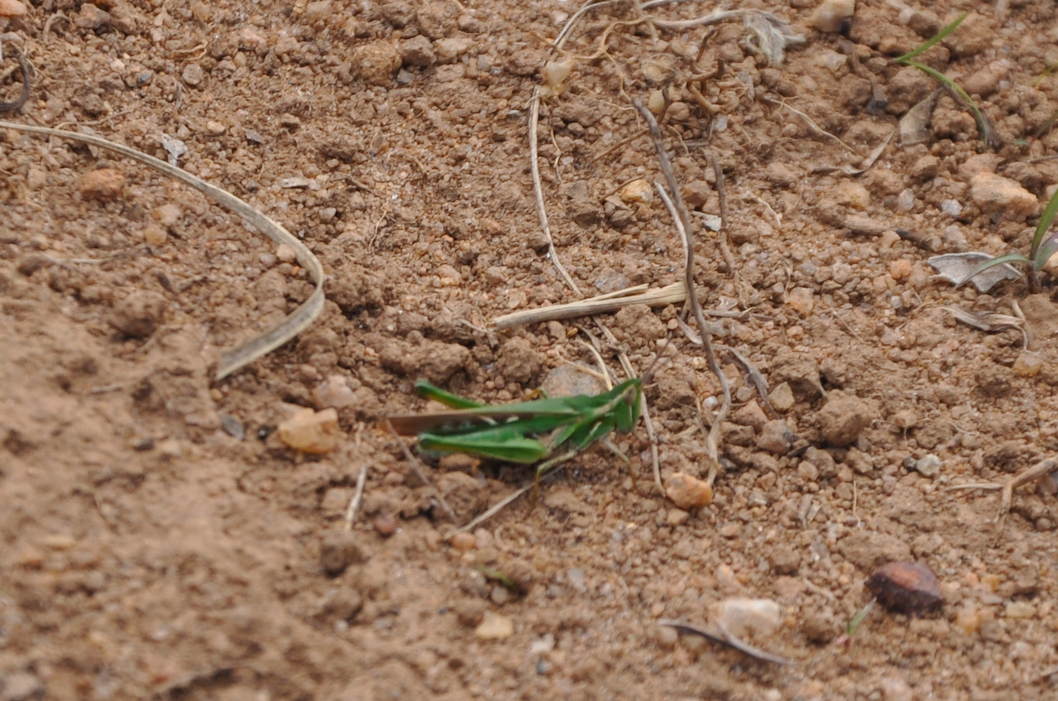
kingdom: Animalia
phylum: Arthropoda
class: Insecta
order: Orthoptera
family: Acrididae
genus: Calephorus
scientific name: Calephorus ornatus
